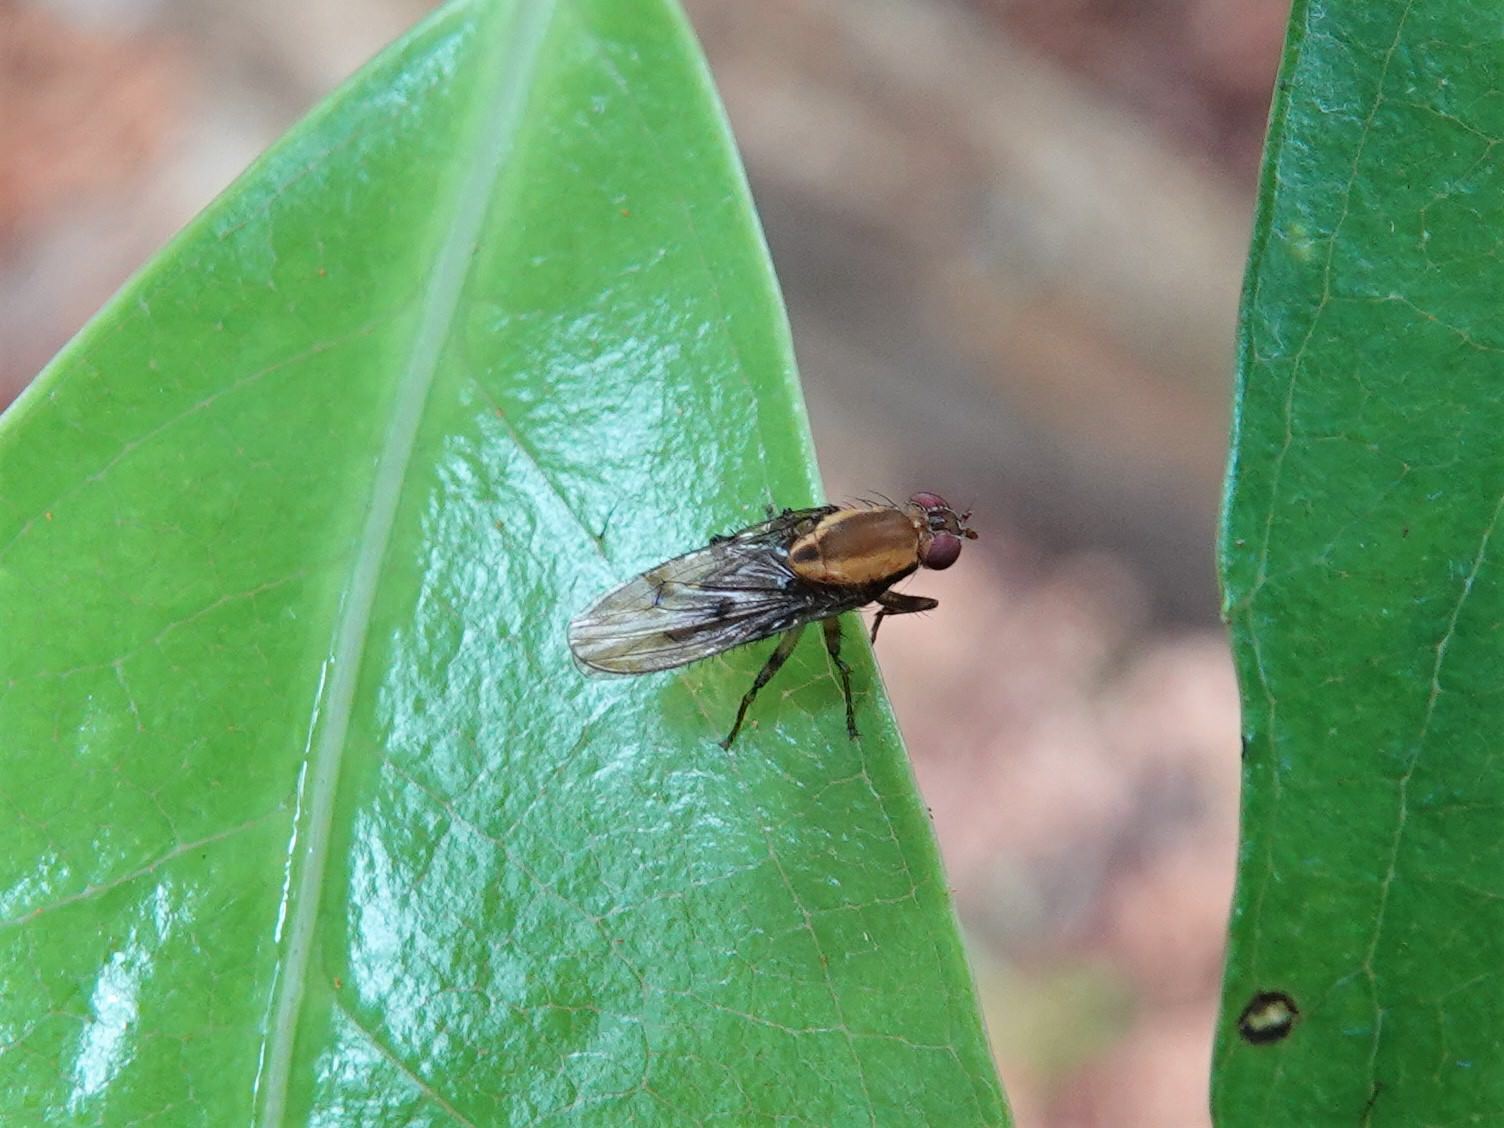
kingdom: Animalia
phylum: Arthropoda
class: Insecta
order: Diptera
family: Heleomyzidae
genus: Allophylopsis
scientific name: Allophylopsis scutellata
